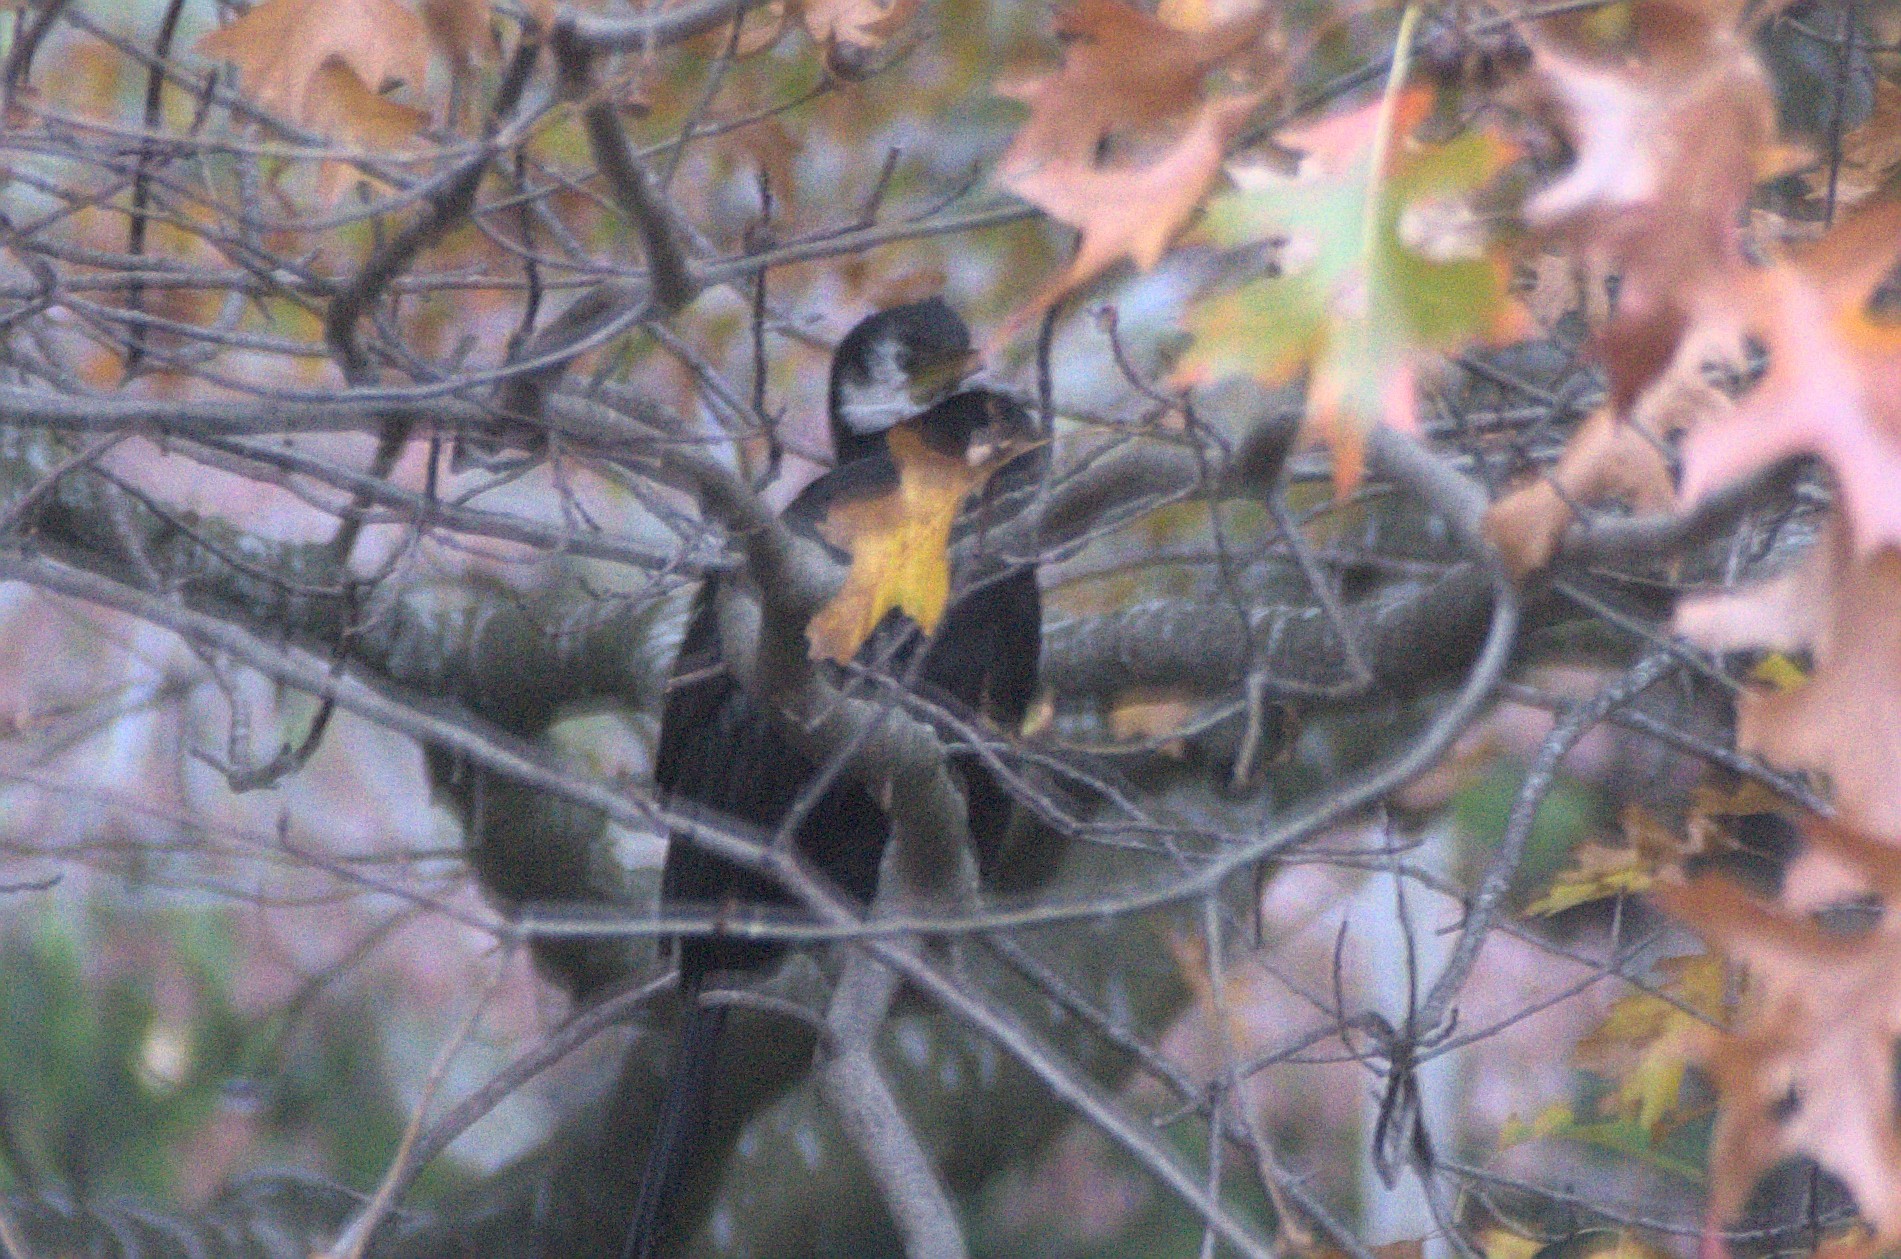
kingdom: Animalia
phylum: Chordata
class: Aves
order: Suliformes
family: Phalacrocoracidae
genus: Microcarbo
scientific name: Microcarbo melanoleucos
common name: Little pied cormorant
